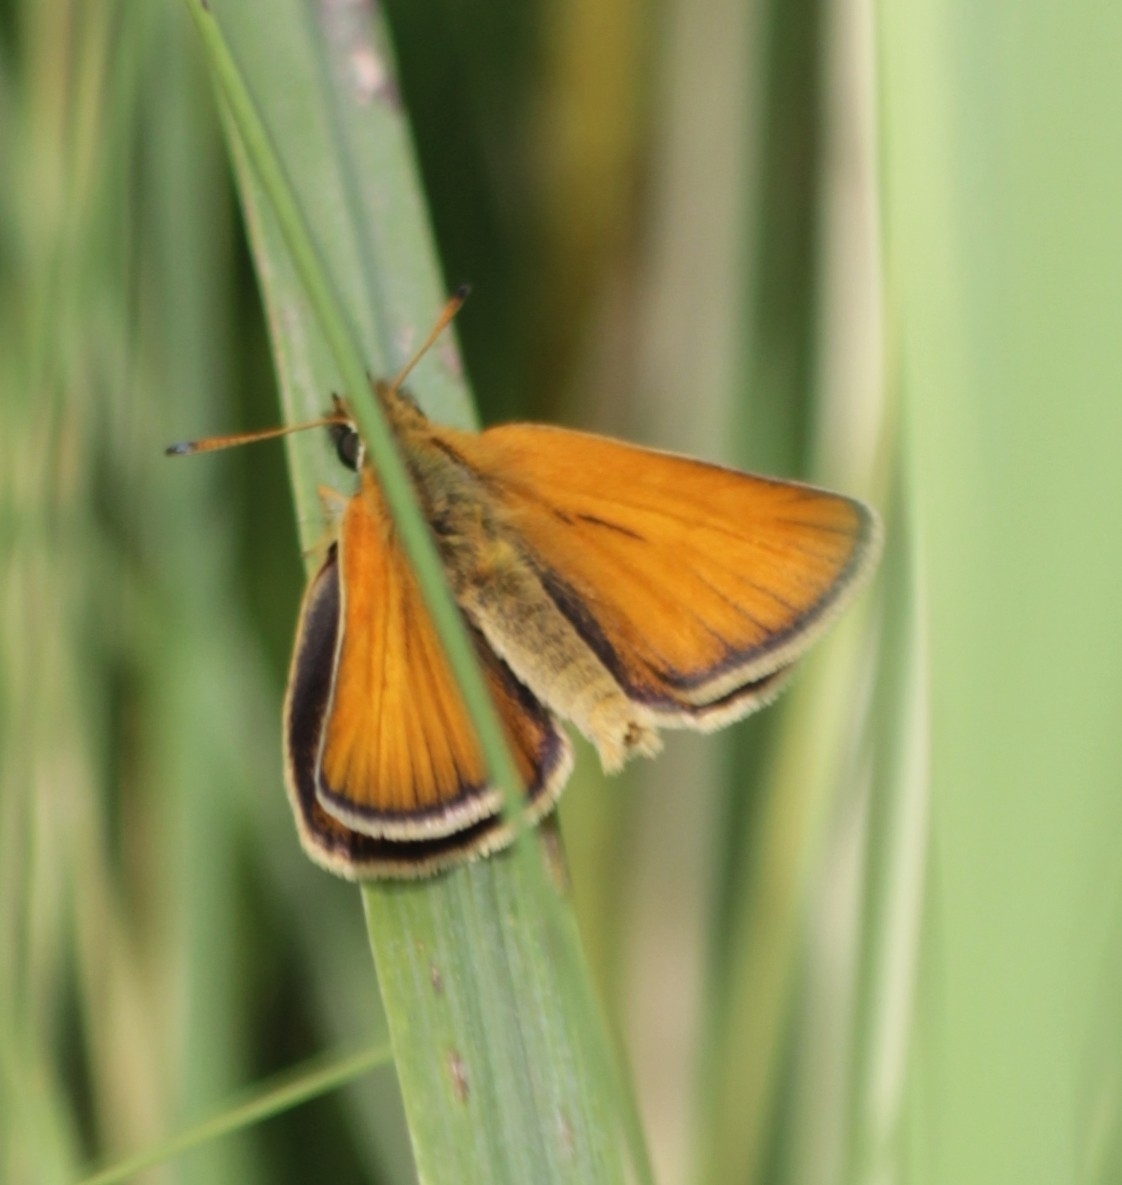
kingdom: Animalia
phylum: Arthropoda
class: Insecta
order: Lepidoptera
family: Hesperiidae
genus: Thymelicus
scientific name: Thymelicus lineola
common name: Essex skipper
